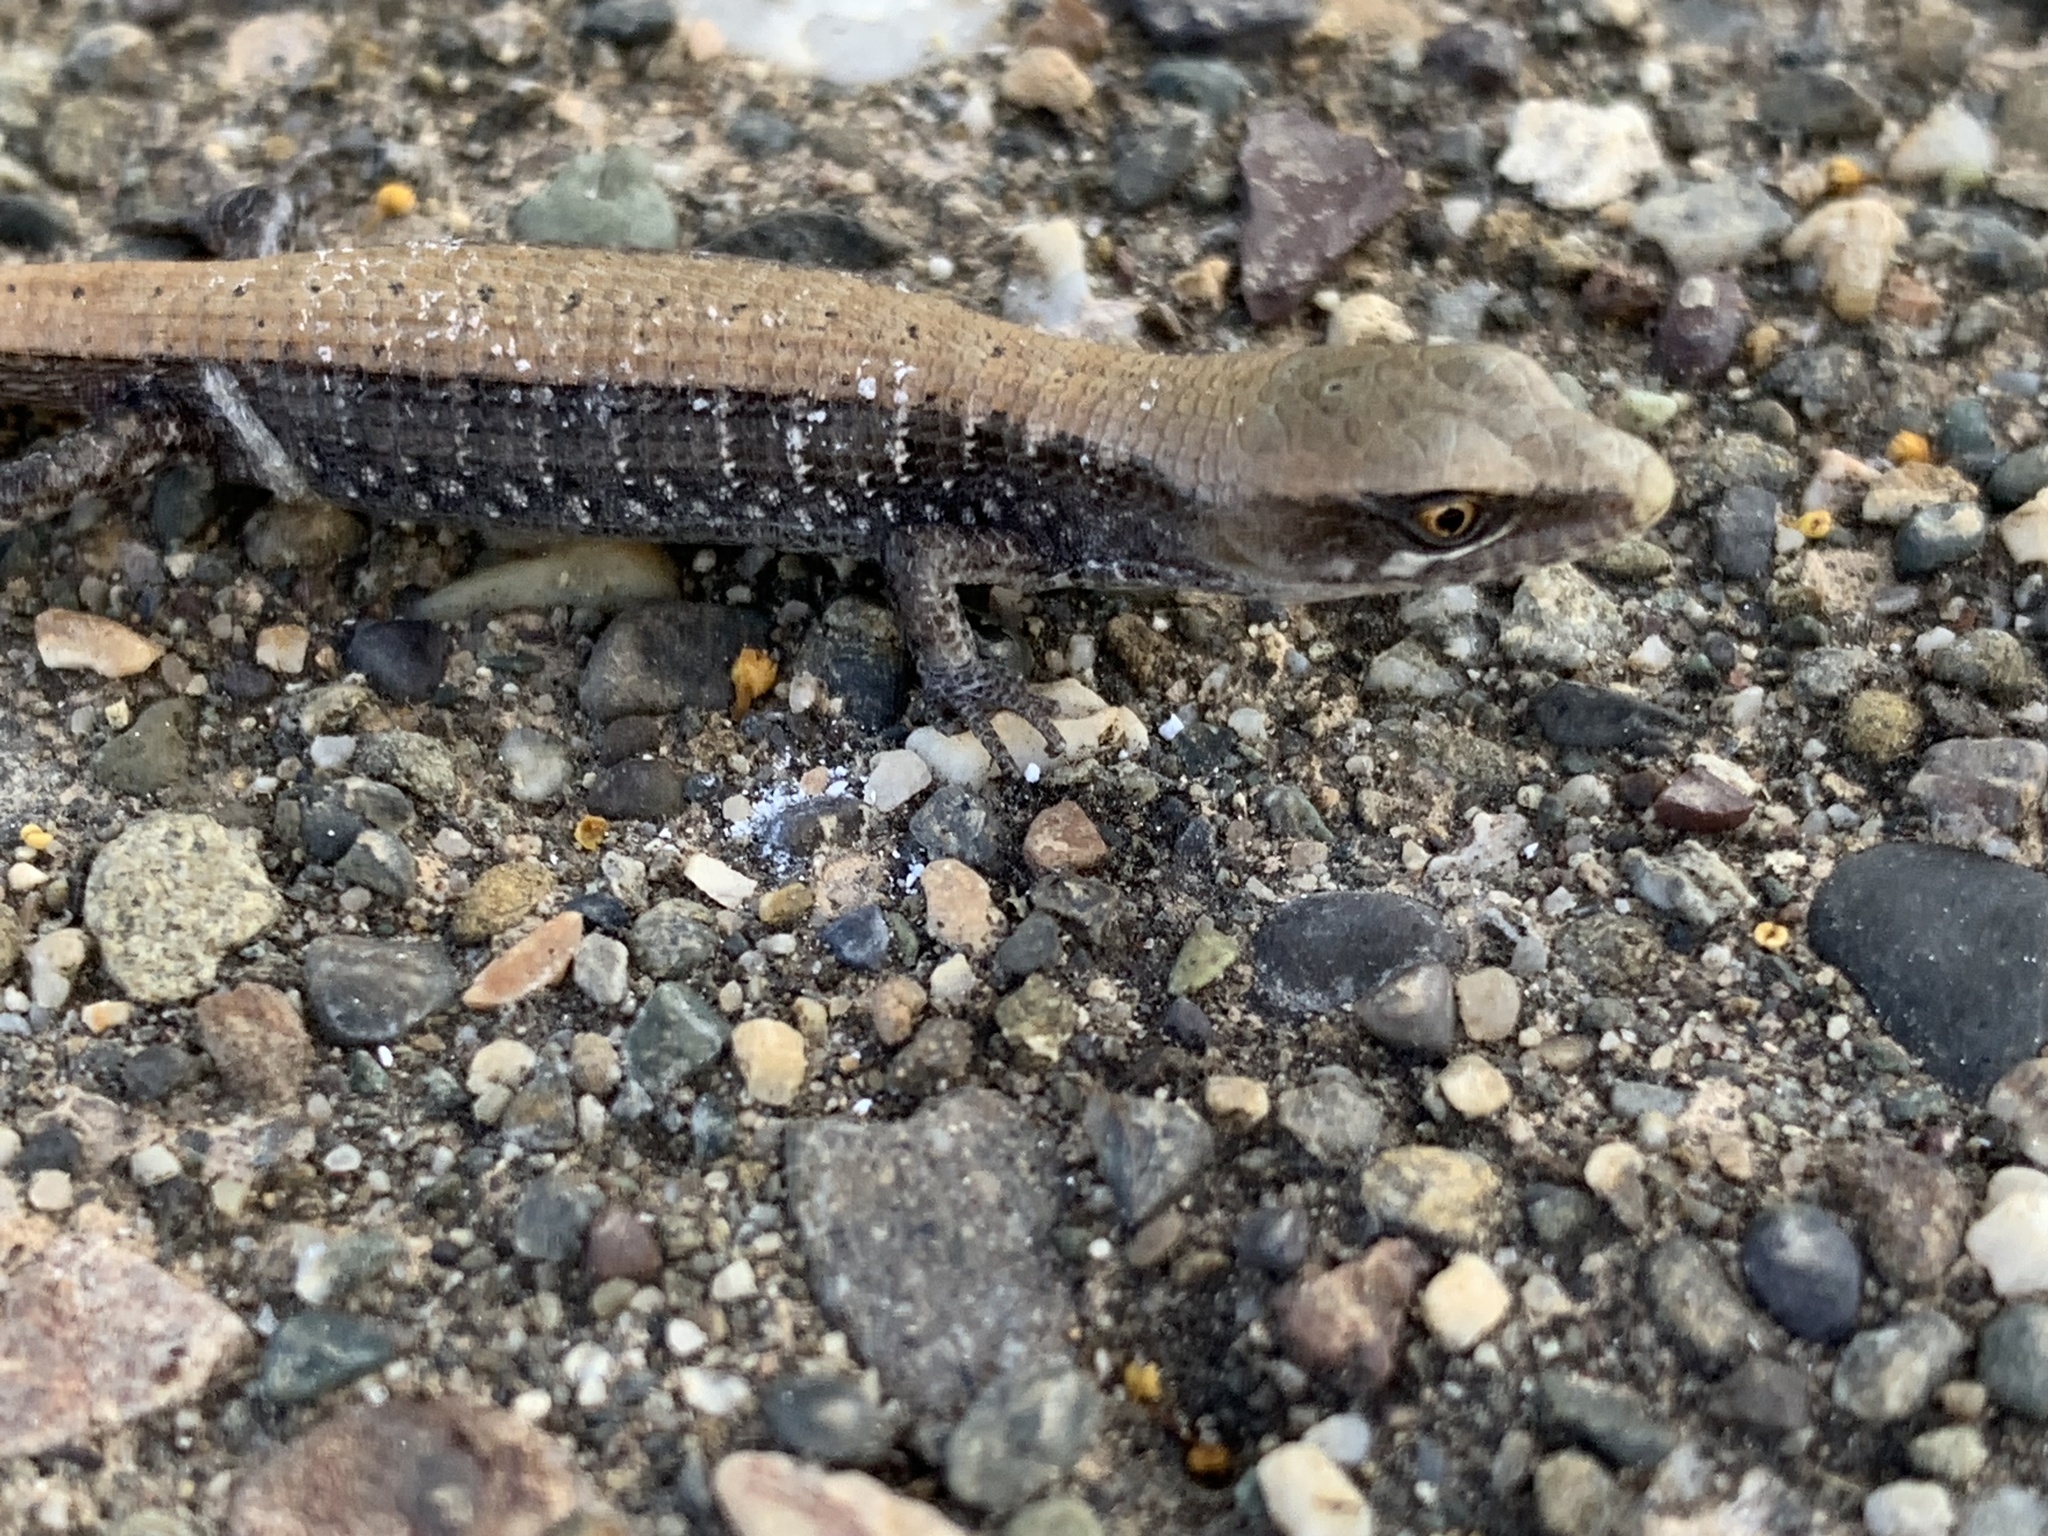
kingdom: Animalia
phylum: Chordata
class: Squamata
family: Anguidae
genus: Elgaria
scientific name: Elgaria multicarinata
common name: Southern alligator lizard
